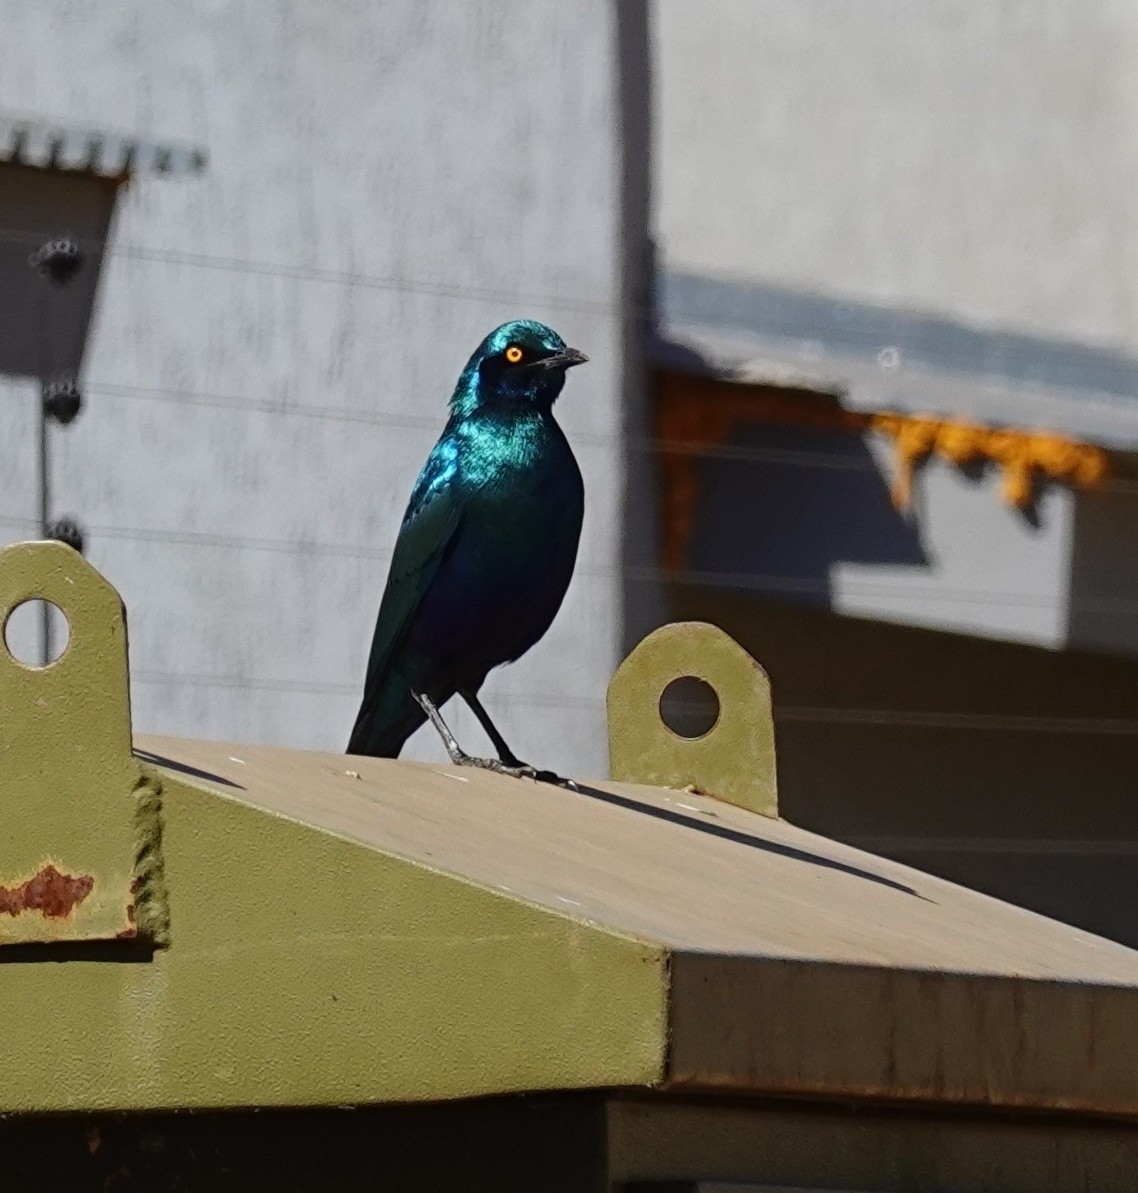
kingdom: Animalia
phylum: Chordata
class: Aves
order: Passeriformes
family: Sturnidae
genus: Lamprotornis
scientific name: Lamprotornis chalybaeus
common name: Greater blue-eared starling
